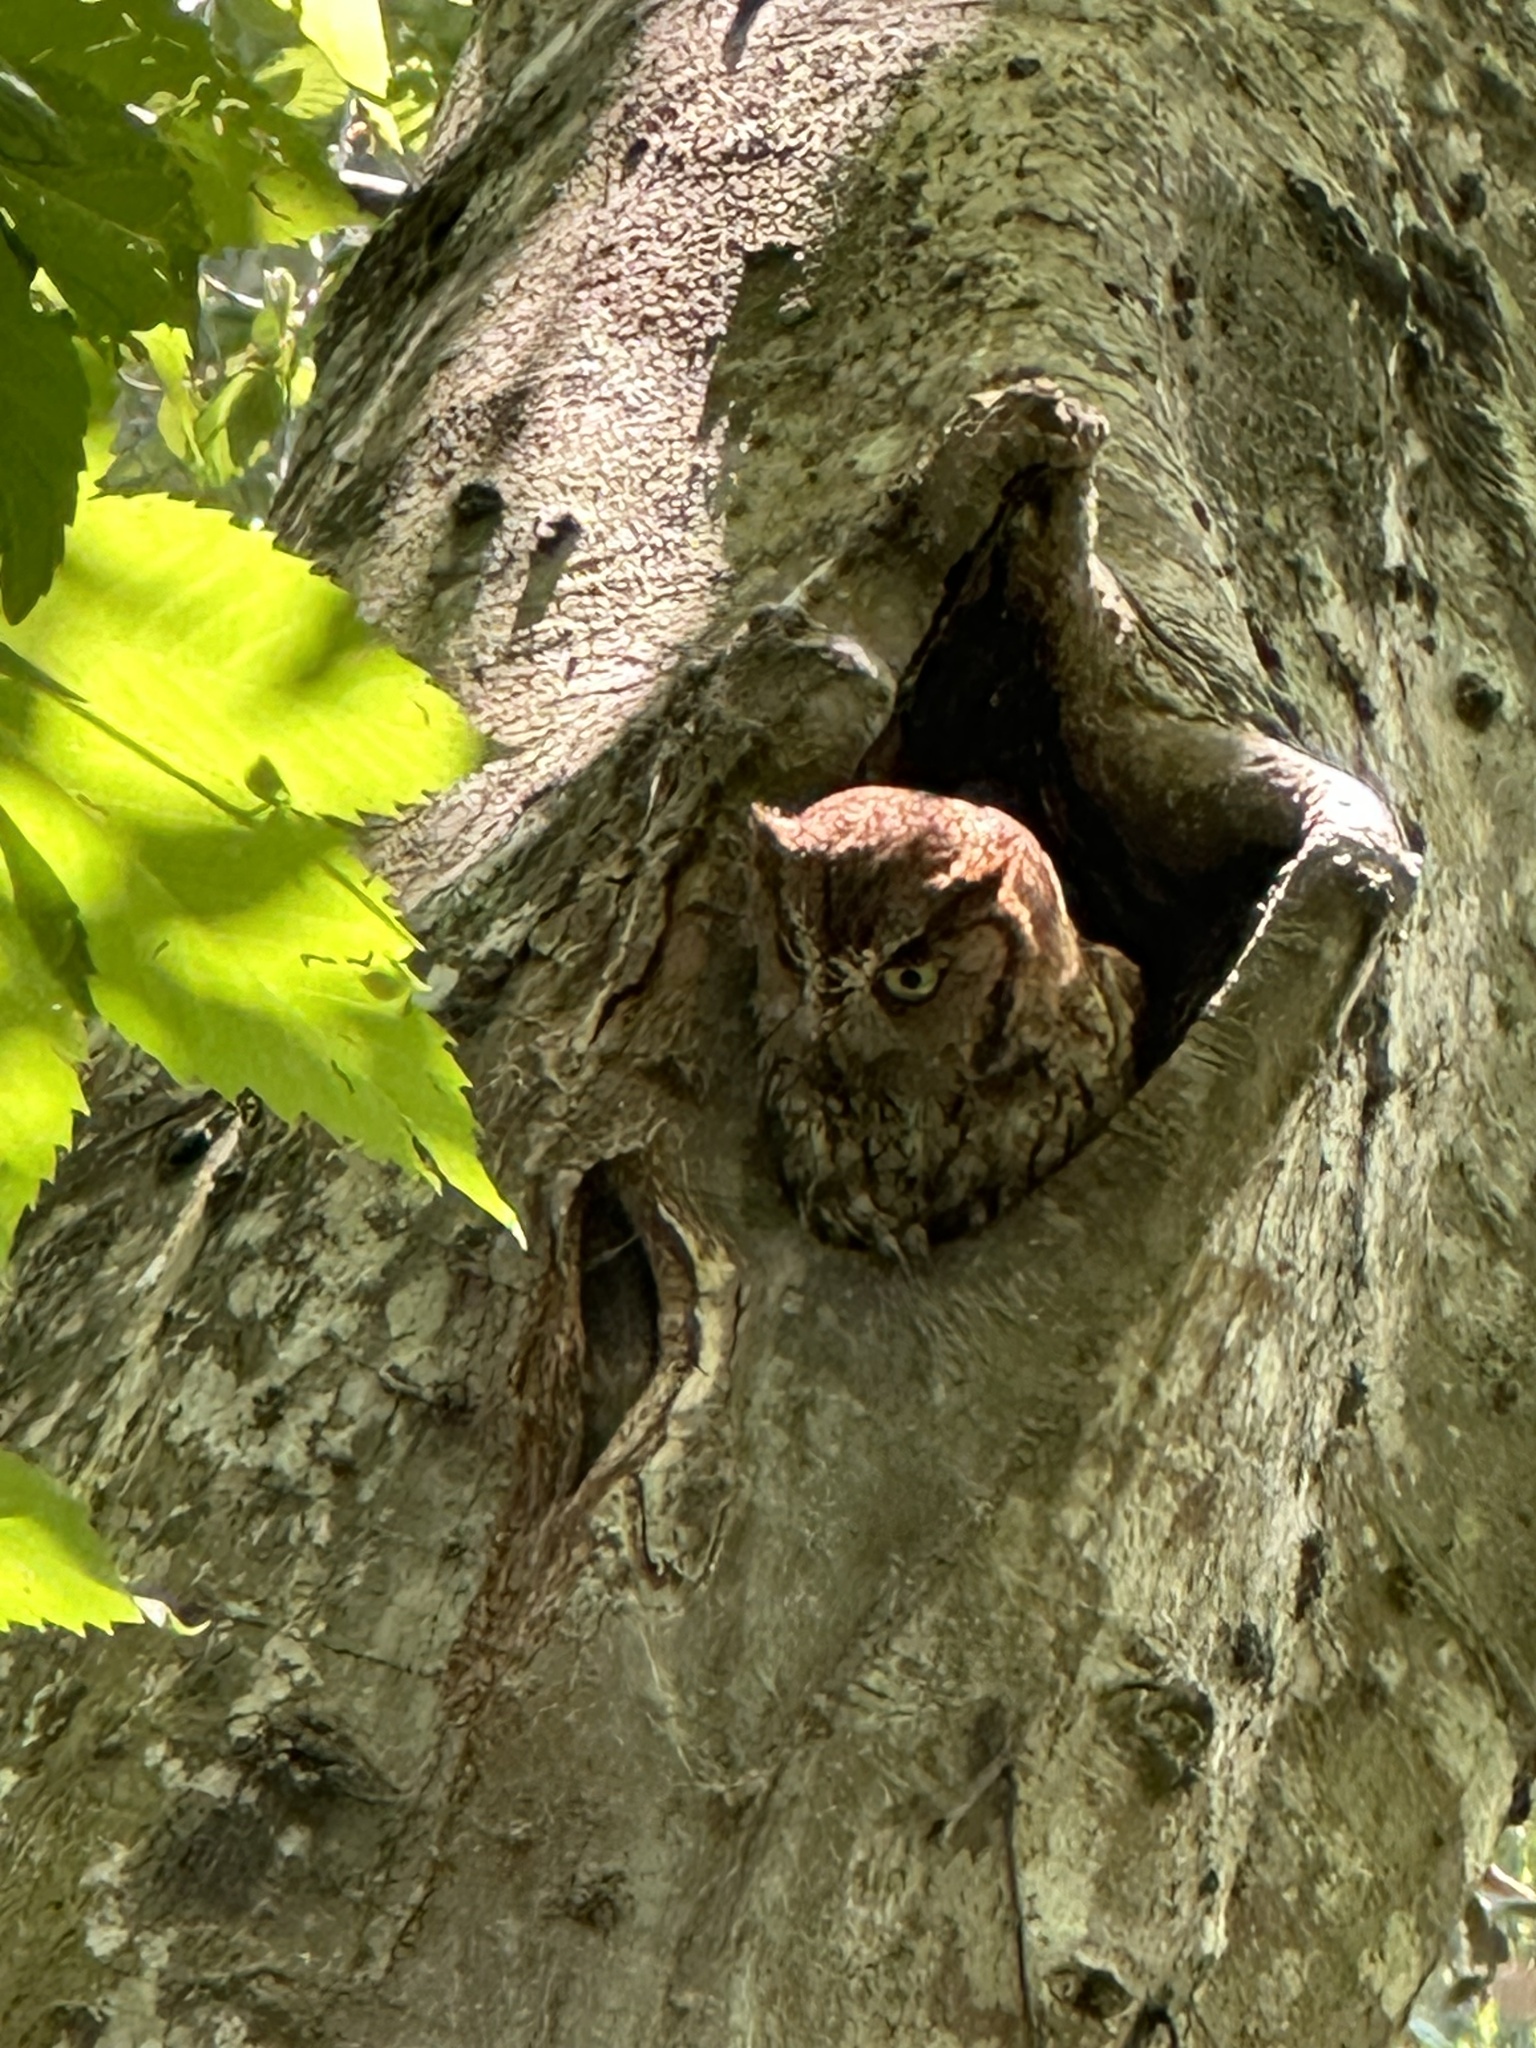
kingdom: Animalia
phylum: Chordata
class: Aves
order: Strigiformes
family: Strigidae
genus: Megascops
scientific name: Megascops asio
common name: Eastern screech-owl
